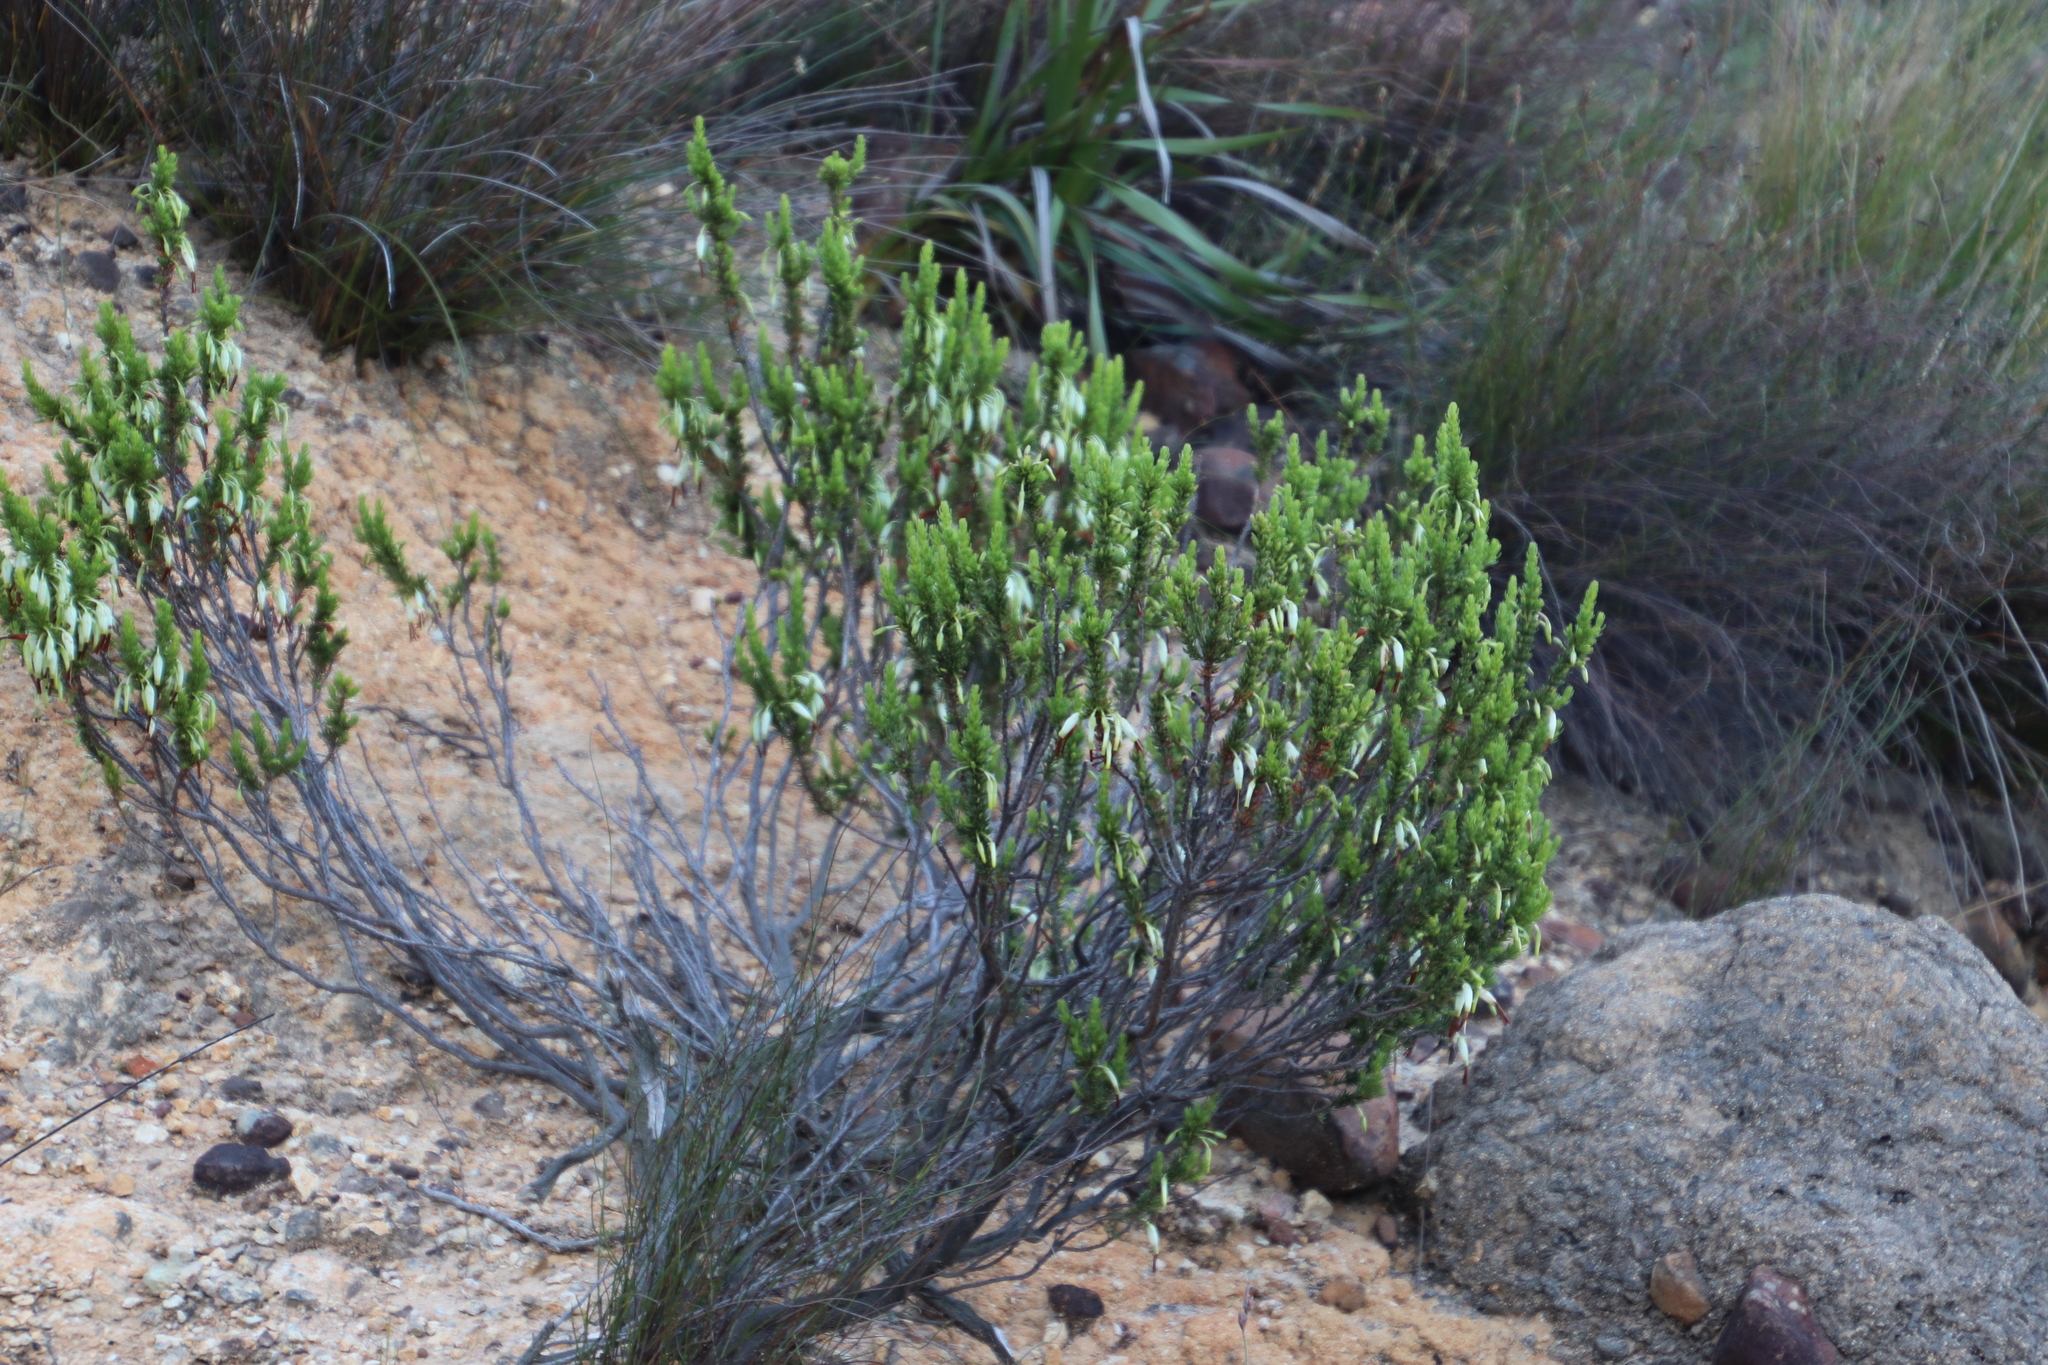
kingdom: Plantae
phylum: Tracheophyta
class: Magnoliopsida
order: Ericales
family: Ericaceae
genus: Erica
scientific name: Erica plukenetii
